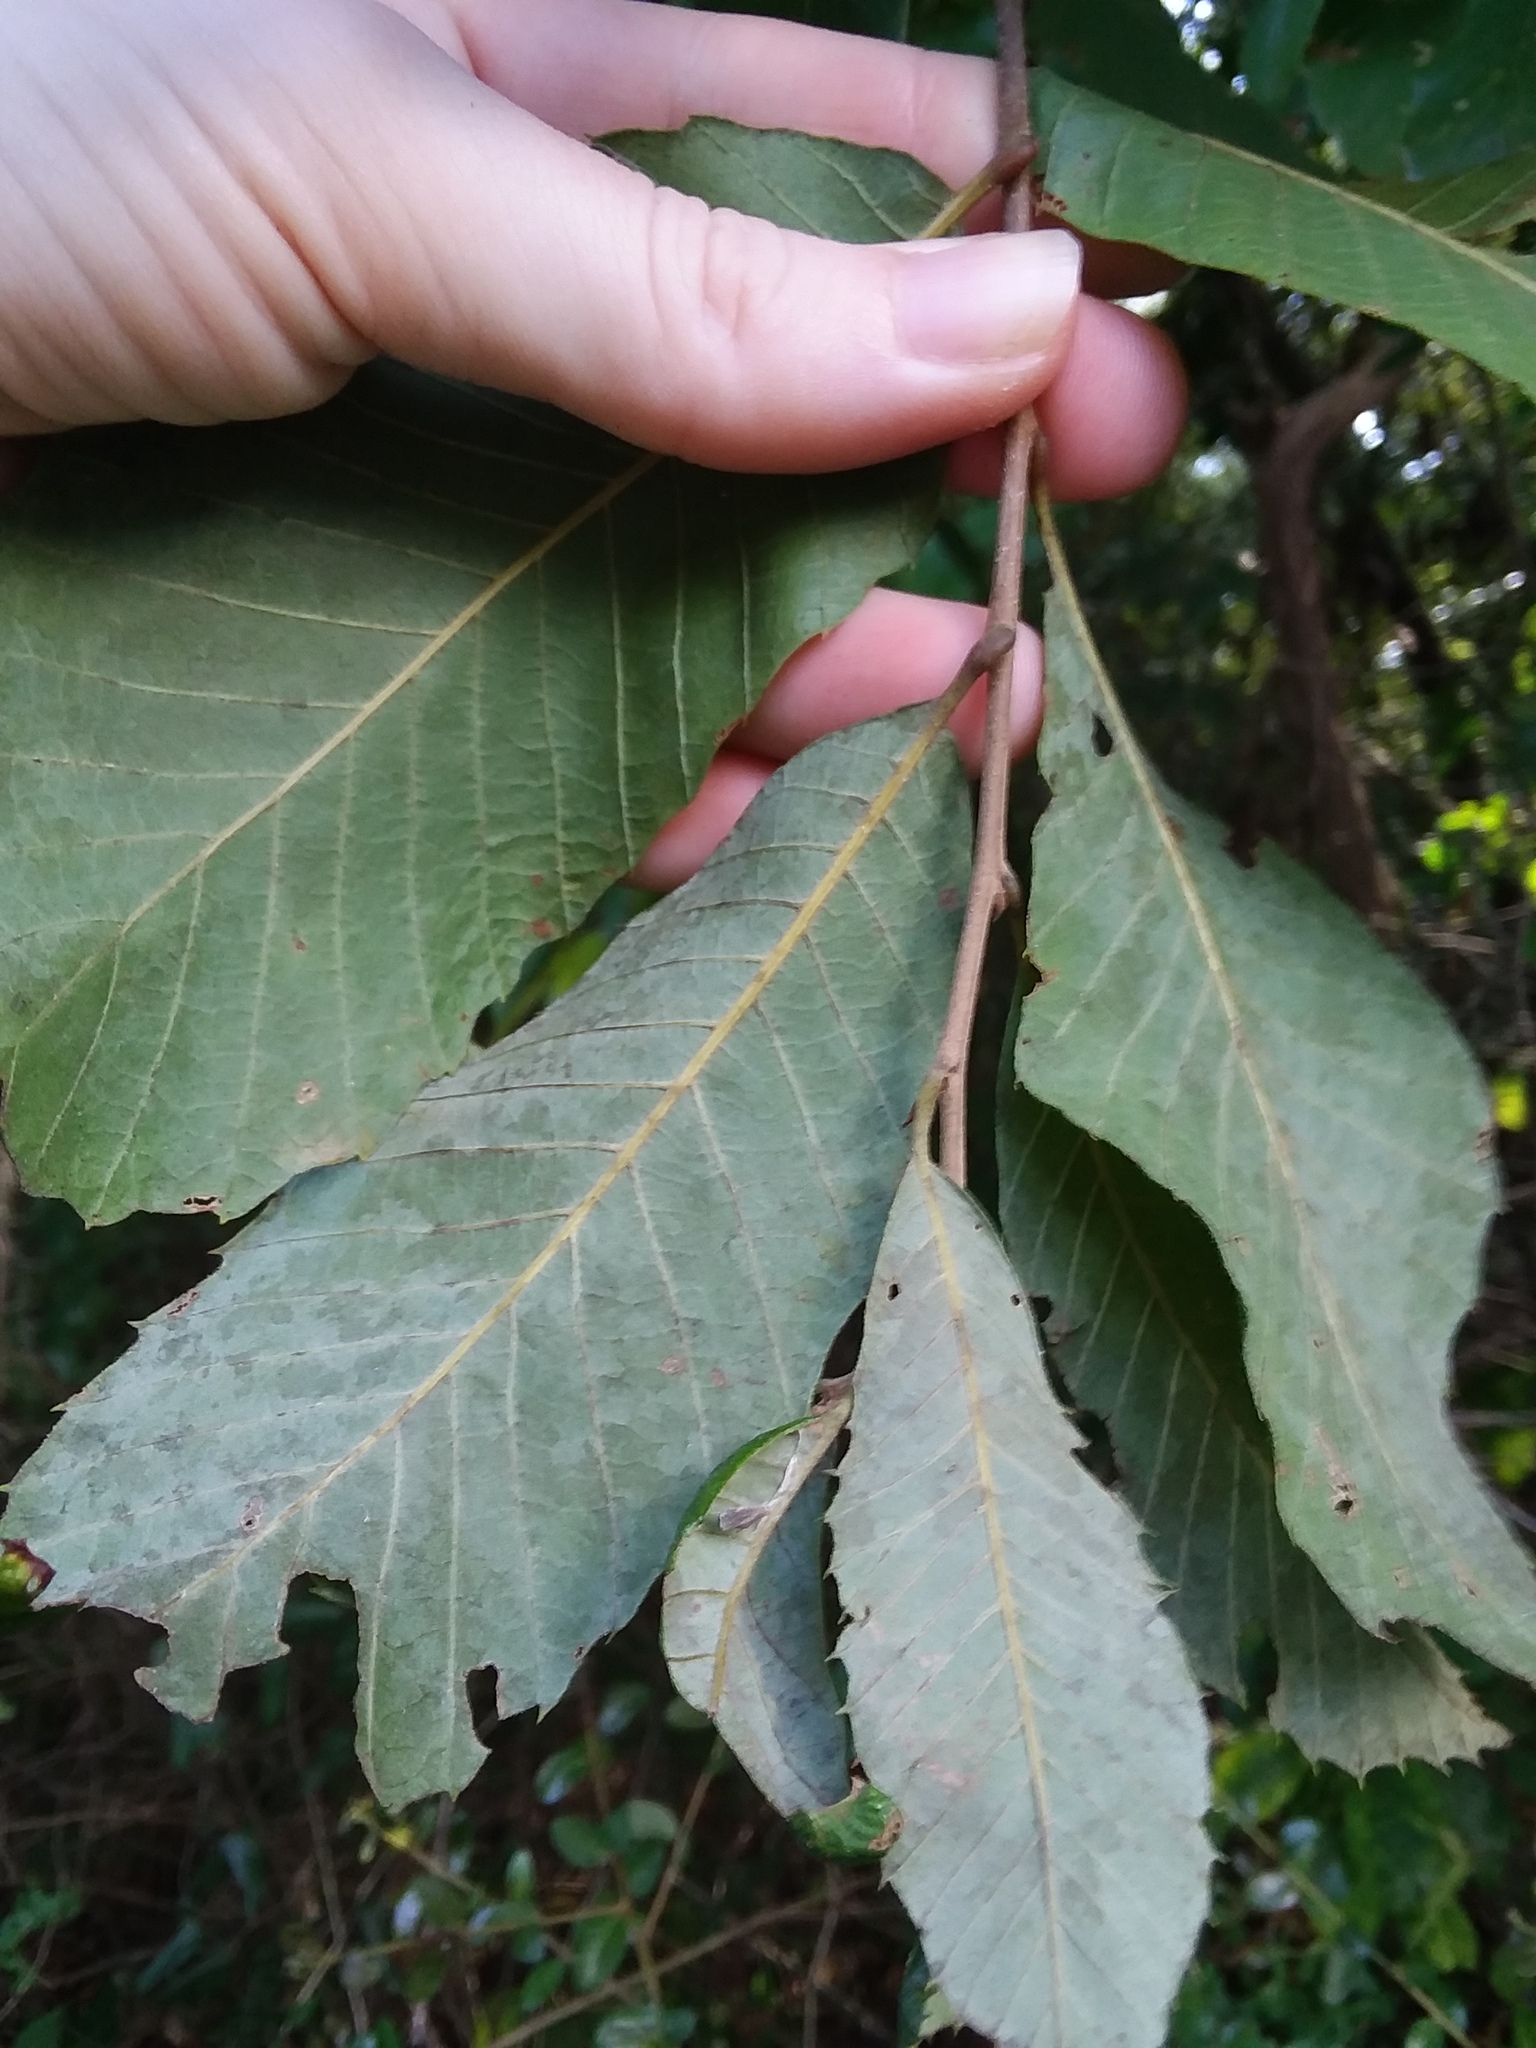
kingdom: Plantae
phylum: Tracheophyta
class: Magnoliopsida
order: Fagales
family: Fagaceae
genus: Castanea
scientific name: Castanea pumila
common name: Chinkapin
